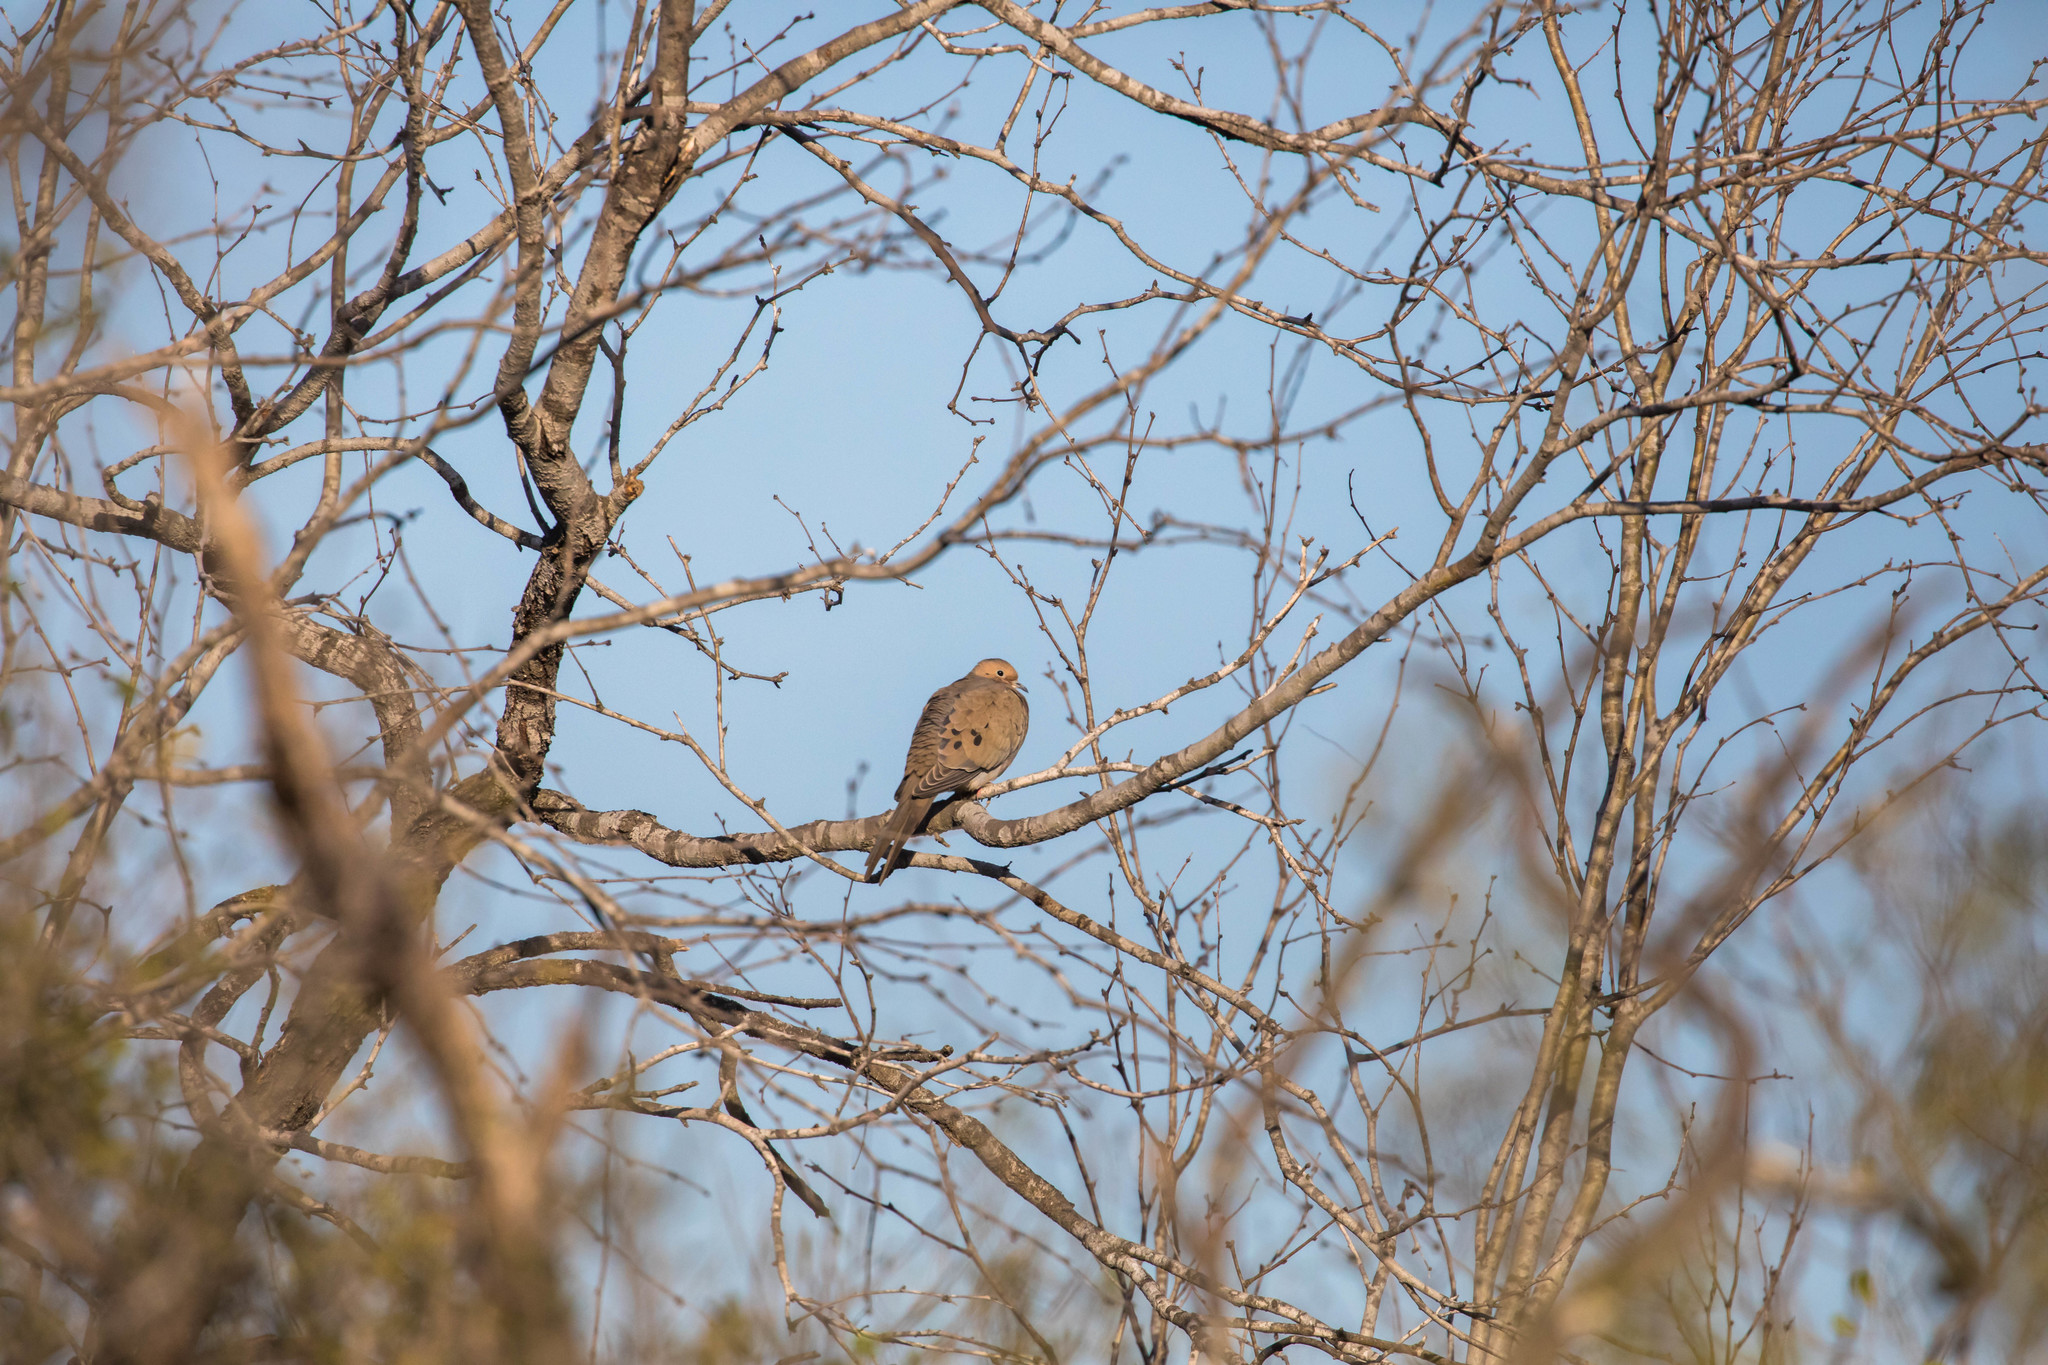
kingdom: Animalia
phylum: Chordata
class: Aves
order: Columbiformes
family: Columbidae
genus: Zenaida
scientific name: Zenaida macroura
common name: Mourning dove
